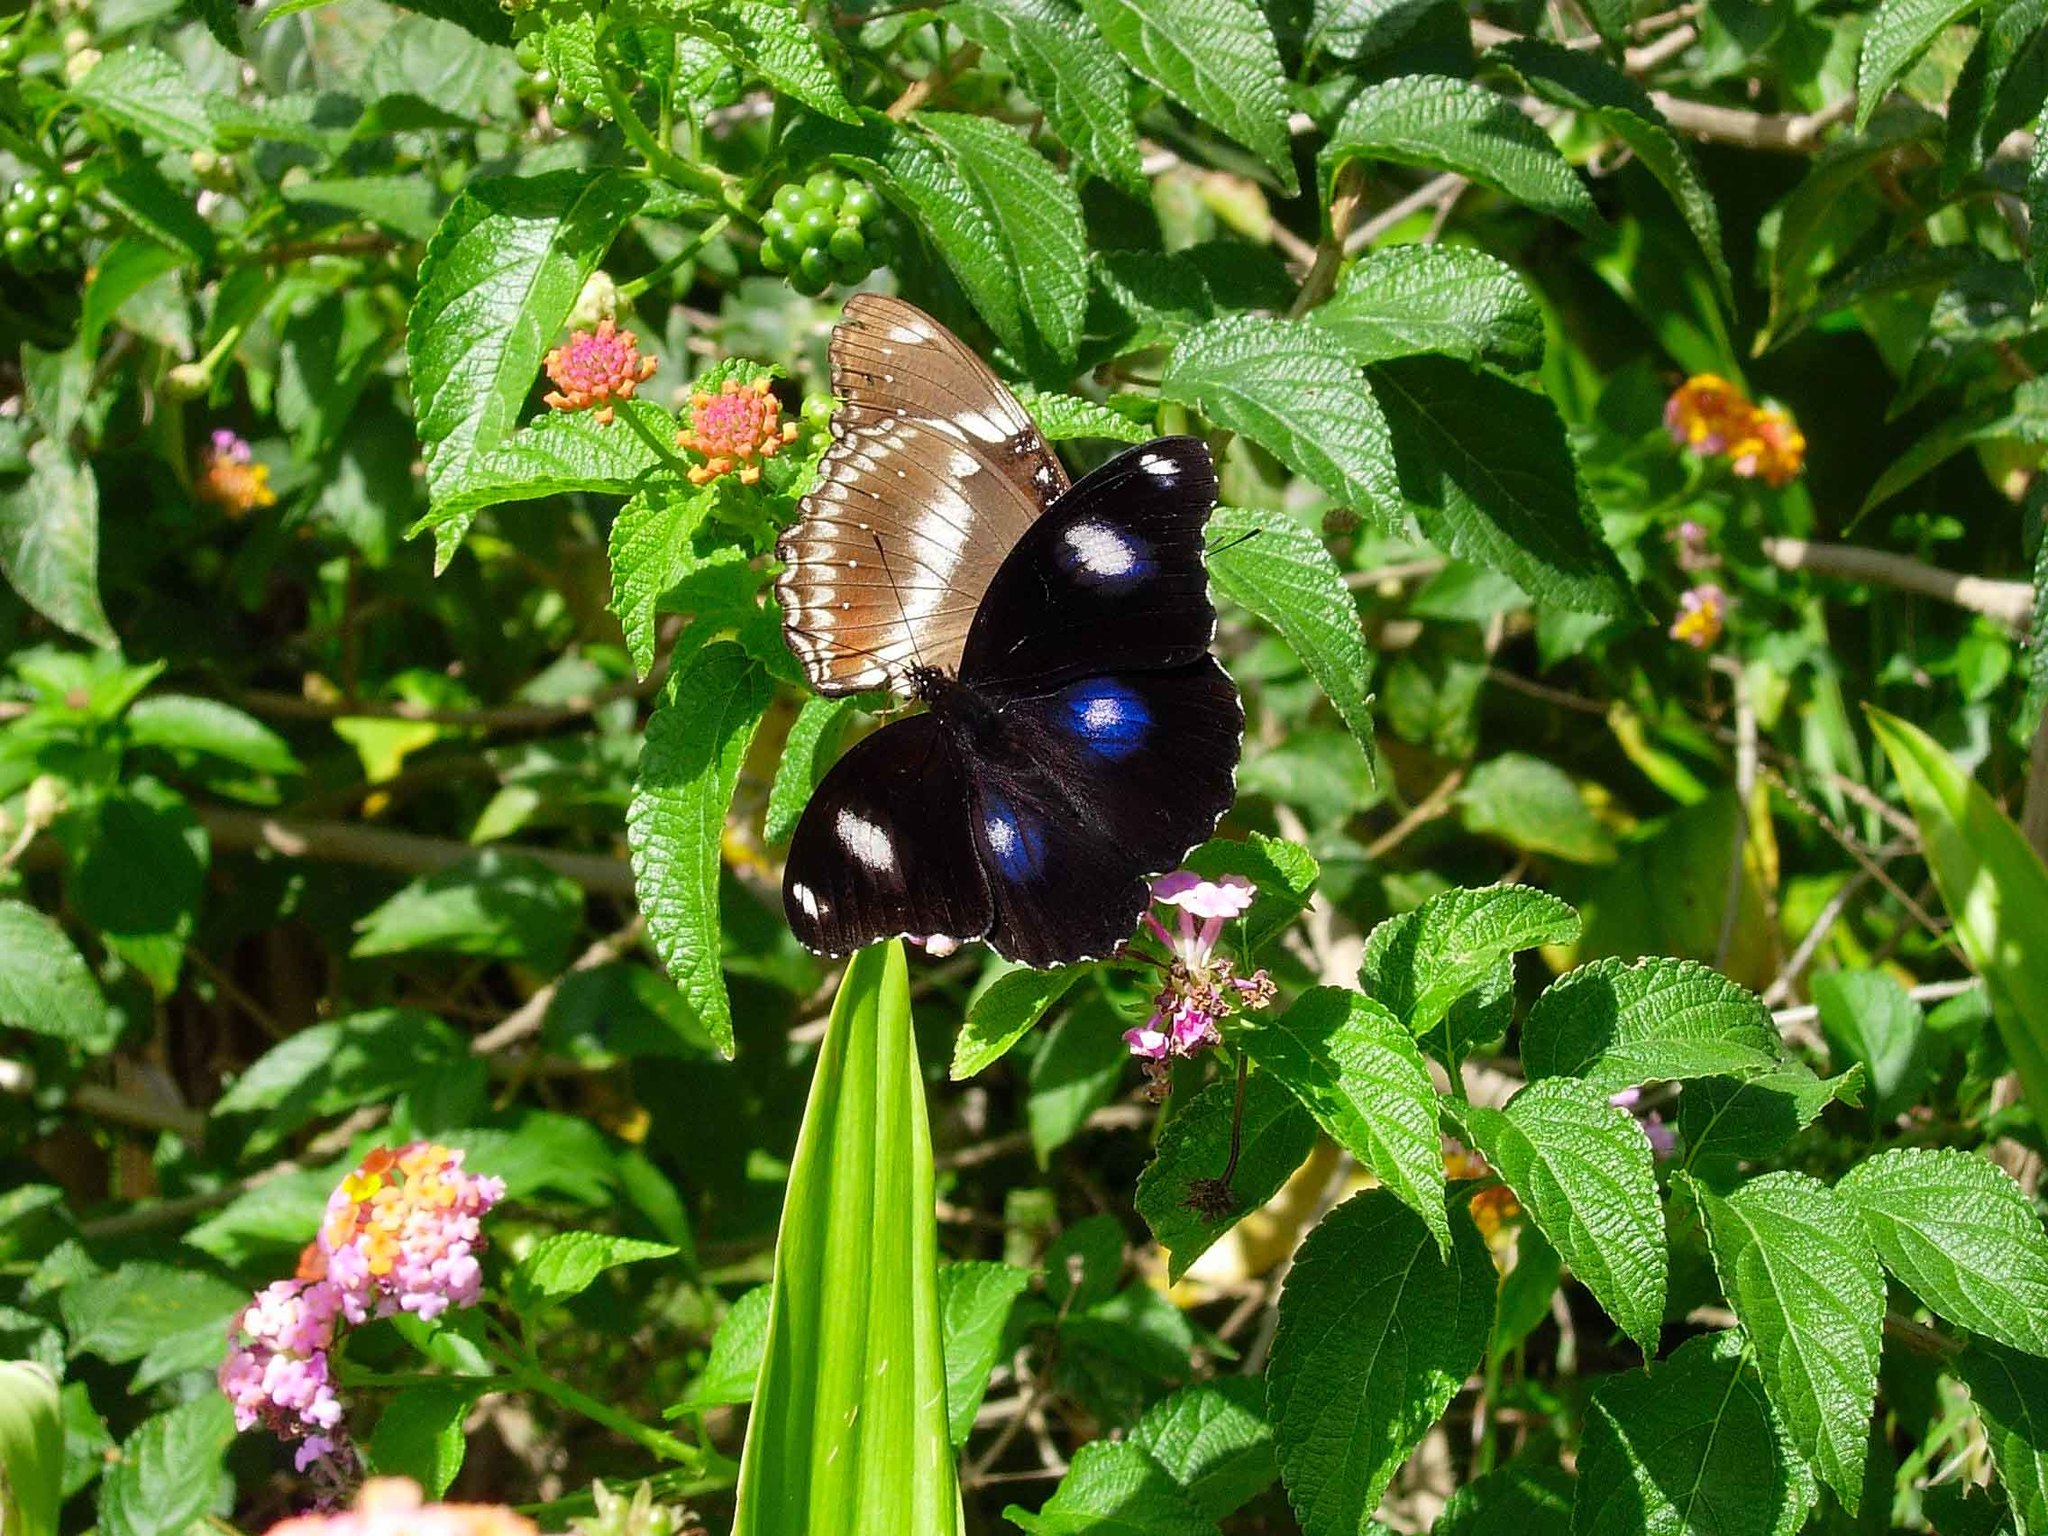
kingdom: Animalia
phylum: Arthropoda
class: Insecta
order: Lepidoptera
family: Nymphalidae
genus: Hypolimnas
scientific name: Hypolimnas bolina
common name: Great eggfly
